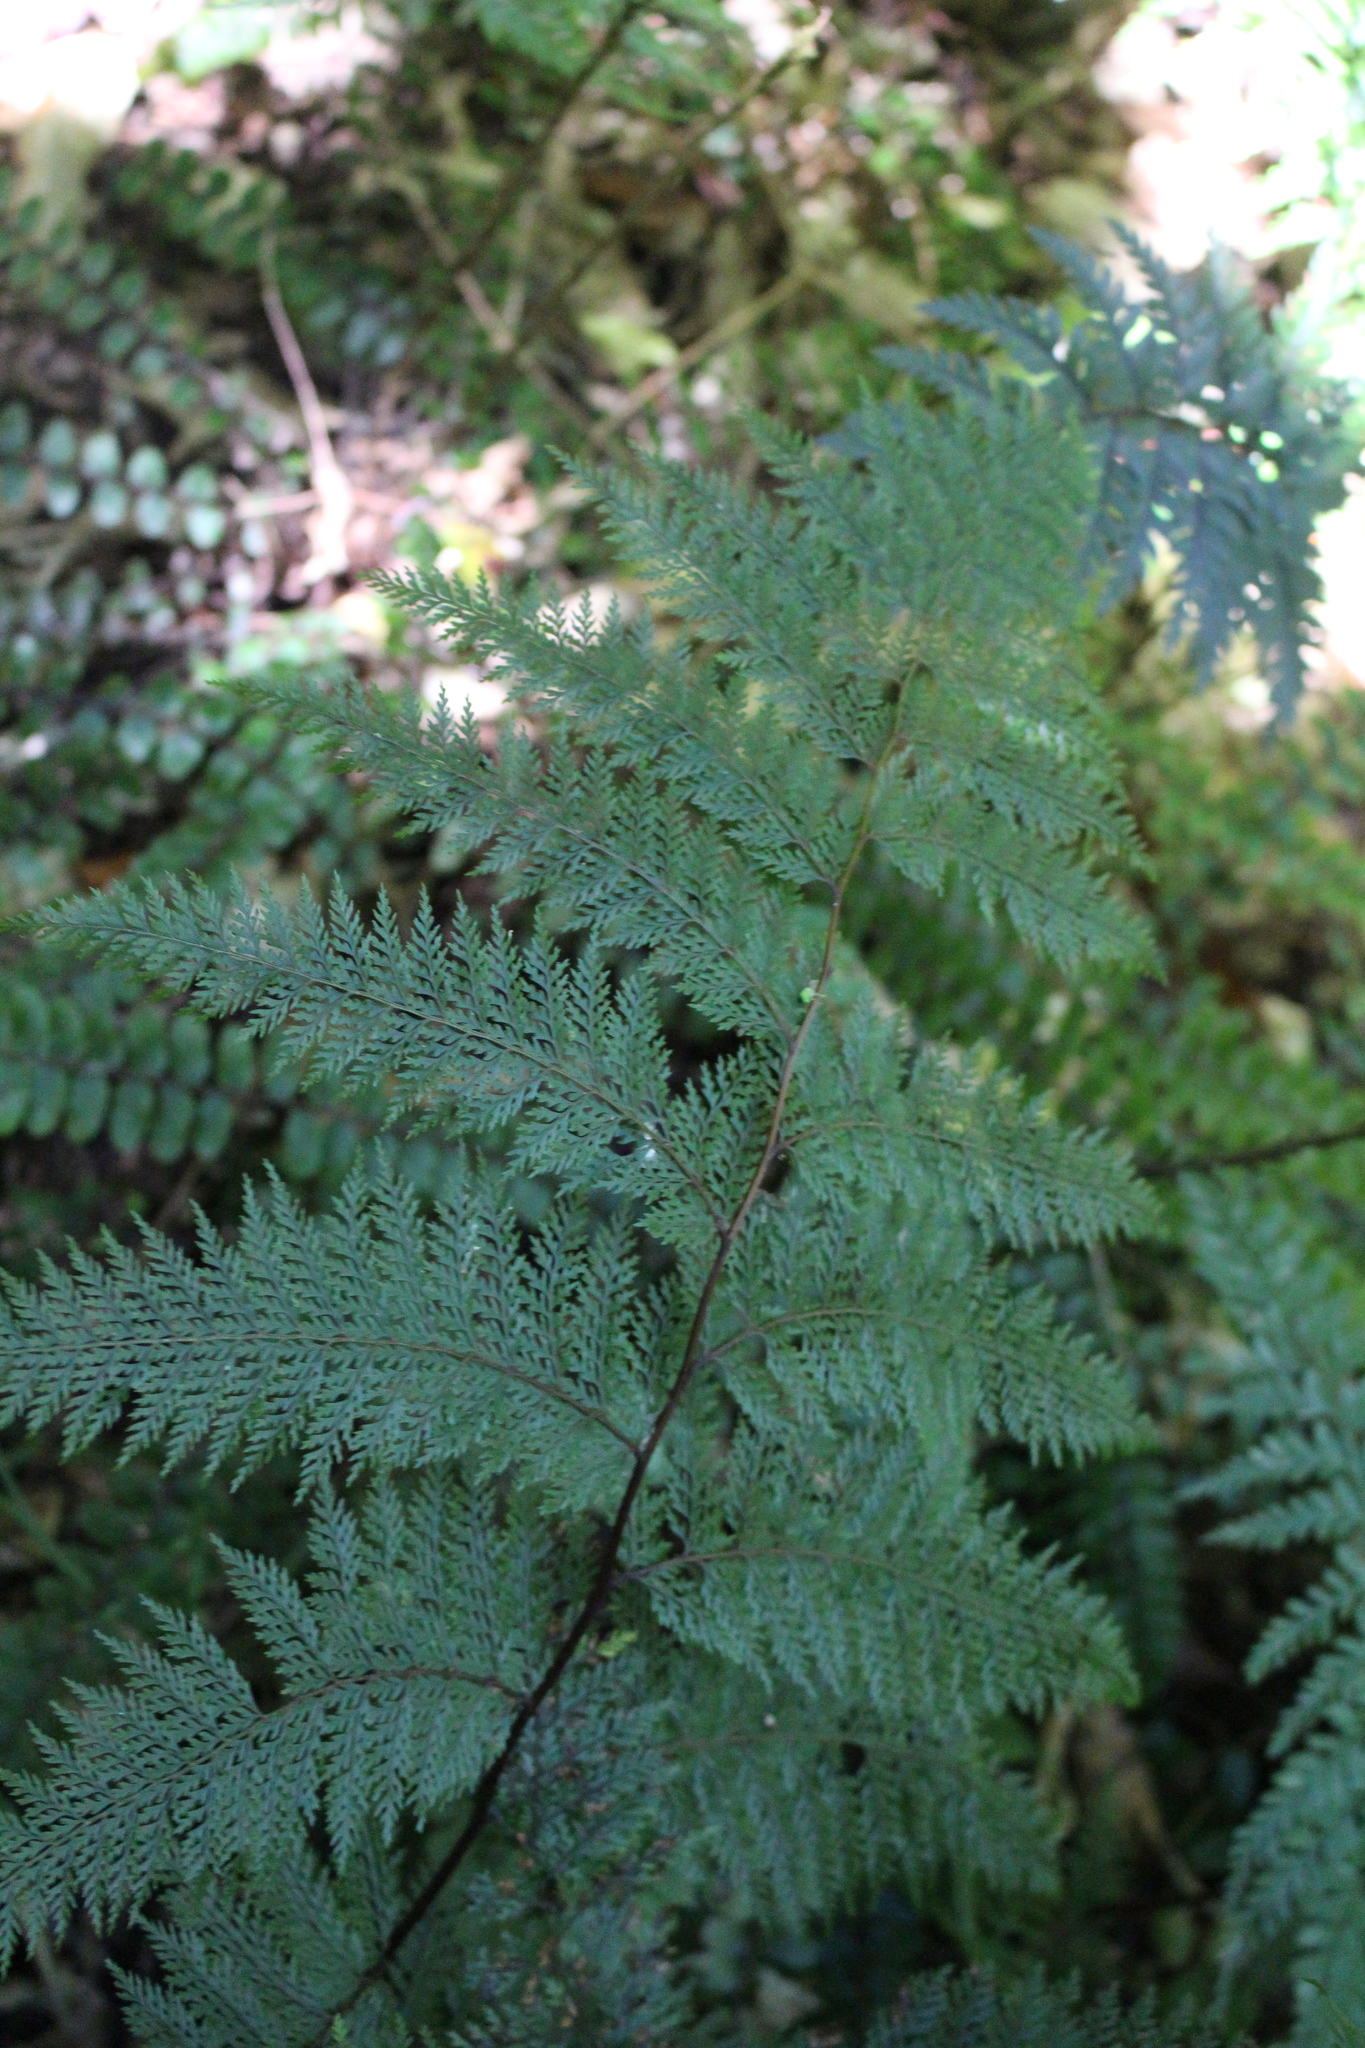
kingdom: Plantae
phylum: Tracheophyta
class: Polypodiopsida
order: Polypodiales
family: Dennstaedtiaceae
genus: Dennstaedtia
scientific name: Dennstaedtia novae-zelandiae
